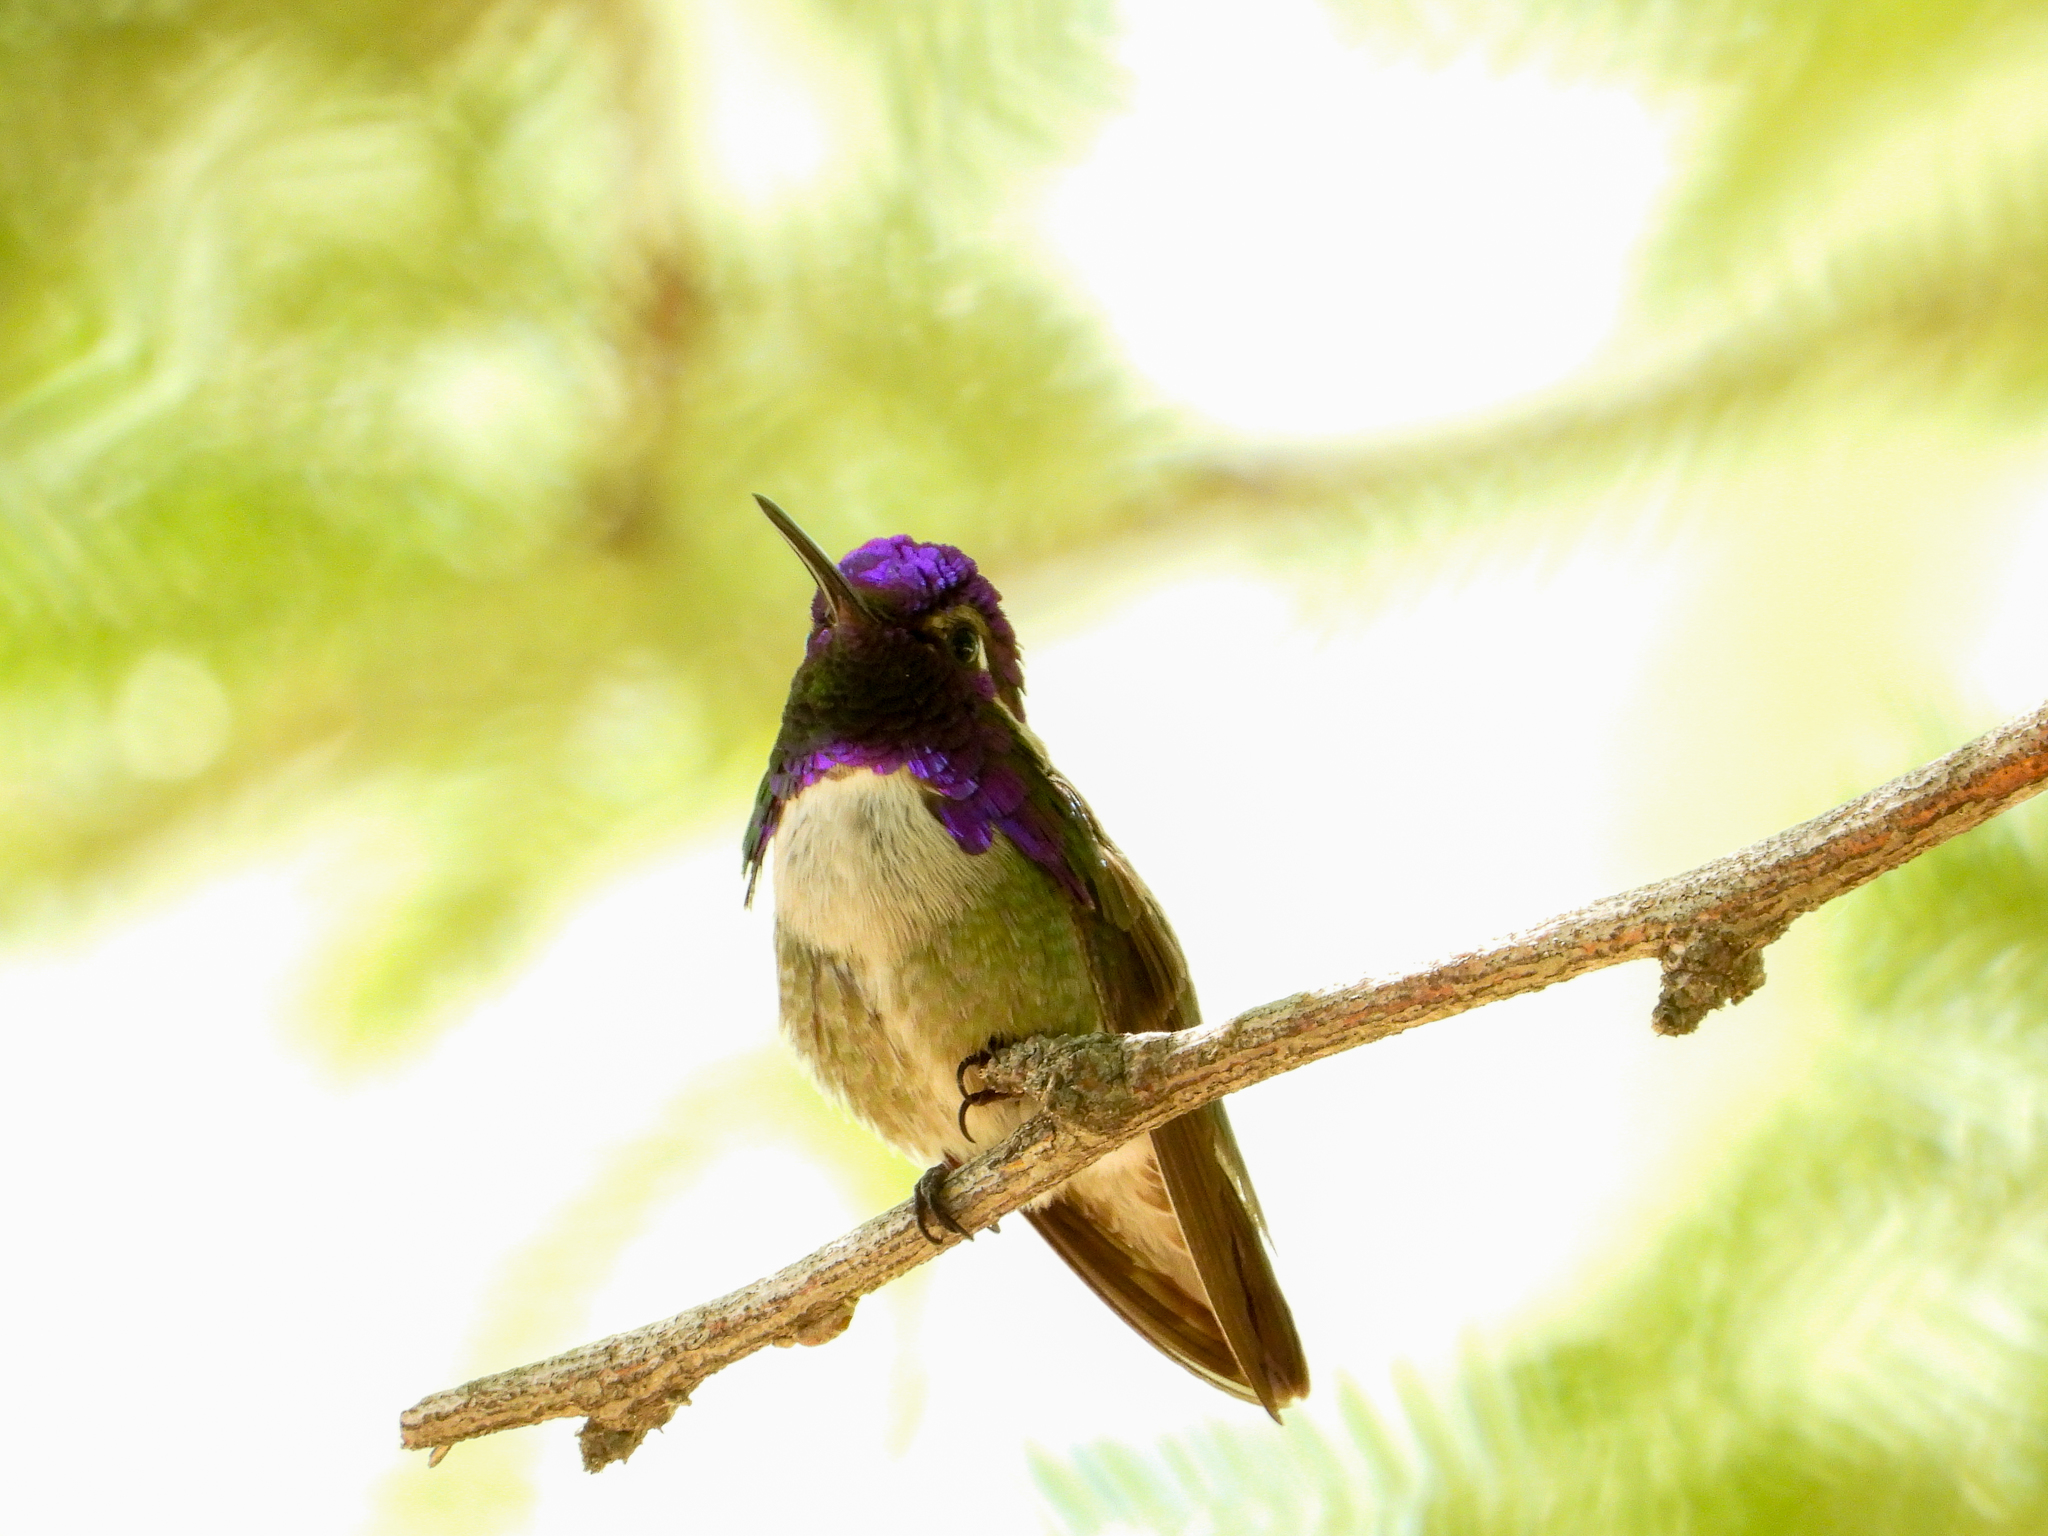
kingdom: Animalia
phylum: Chordata
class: Aves
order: Apodiformes
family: Trochilidae
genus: Calypte
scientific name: Calypte costae
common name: Costa's hummingbird
